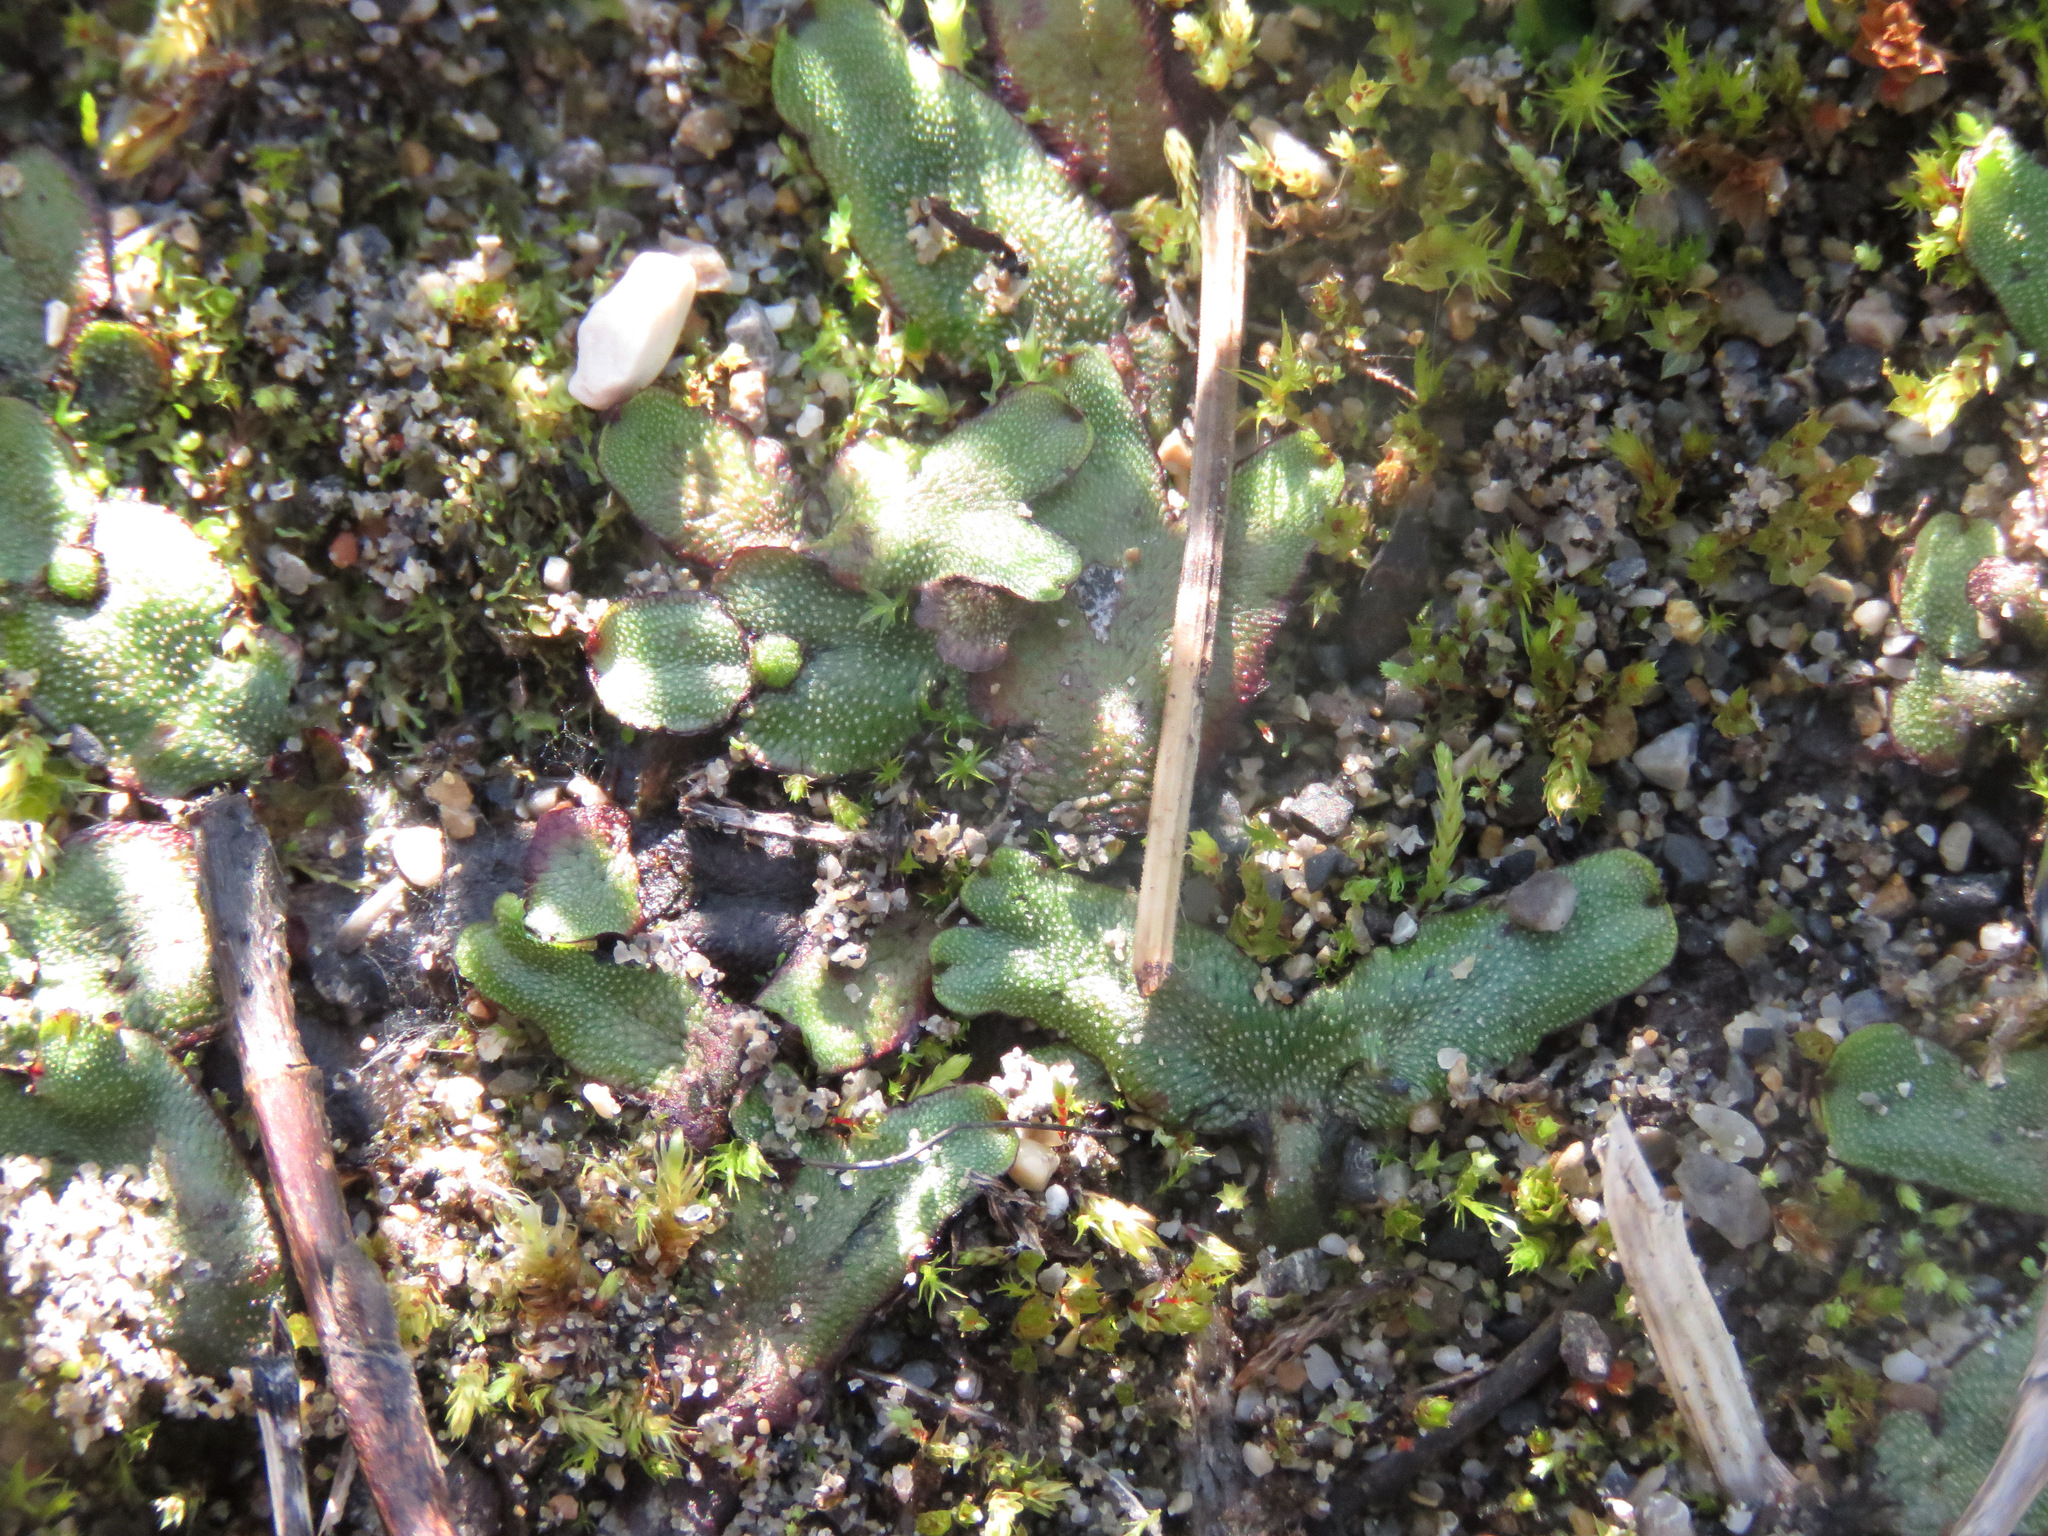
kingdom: Plantae
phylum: Marchantiophyta
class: Marchantiopsida
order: Marchantiales
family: Marchantiaceae
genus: Marchantia
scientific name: Marchantia quadrata
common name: Narrow mushroom-headed liverwort
